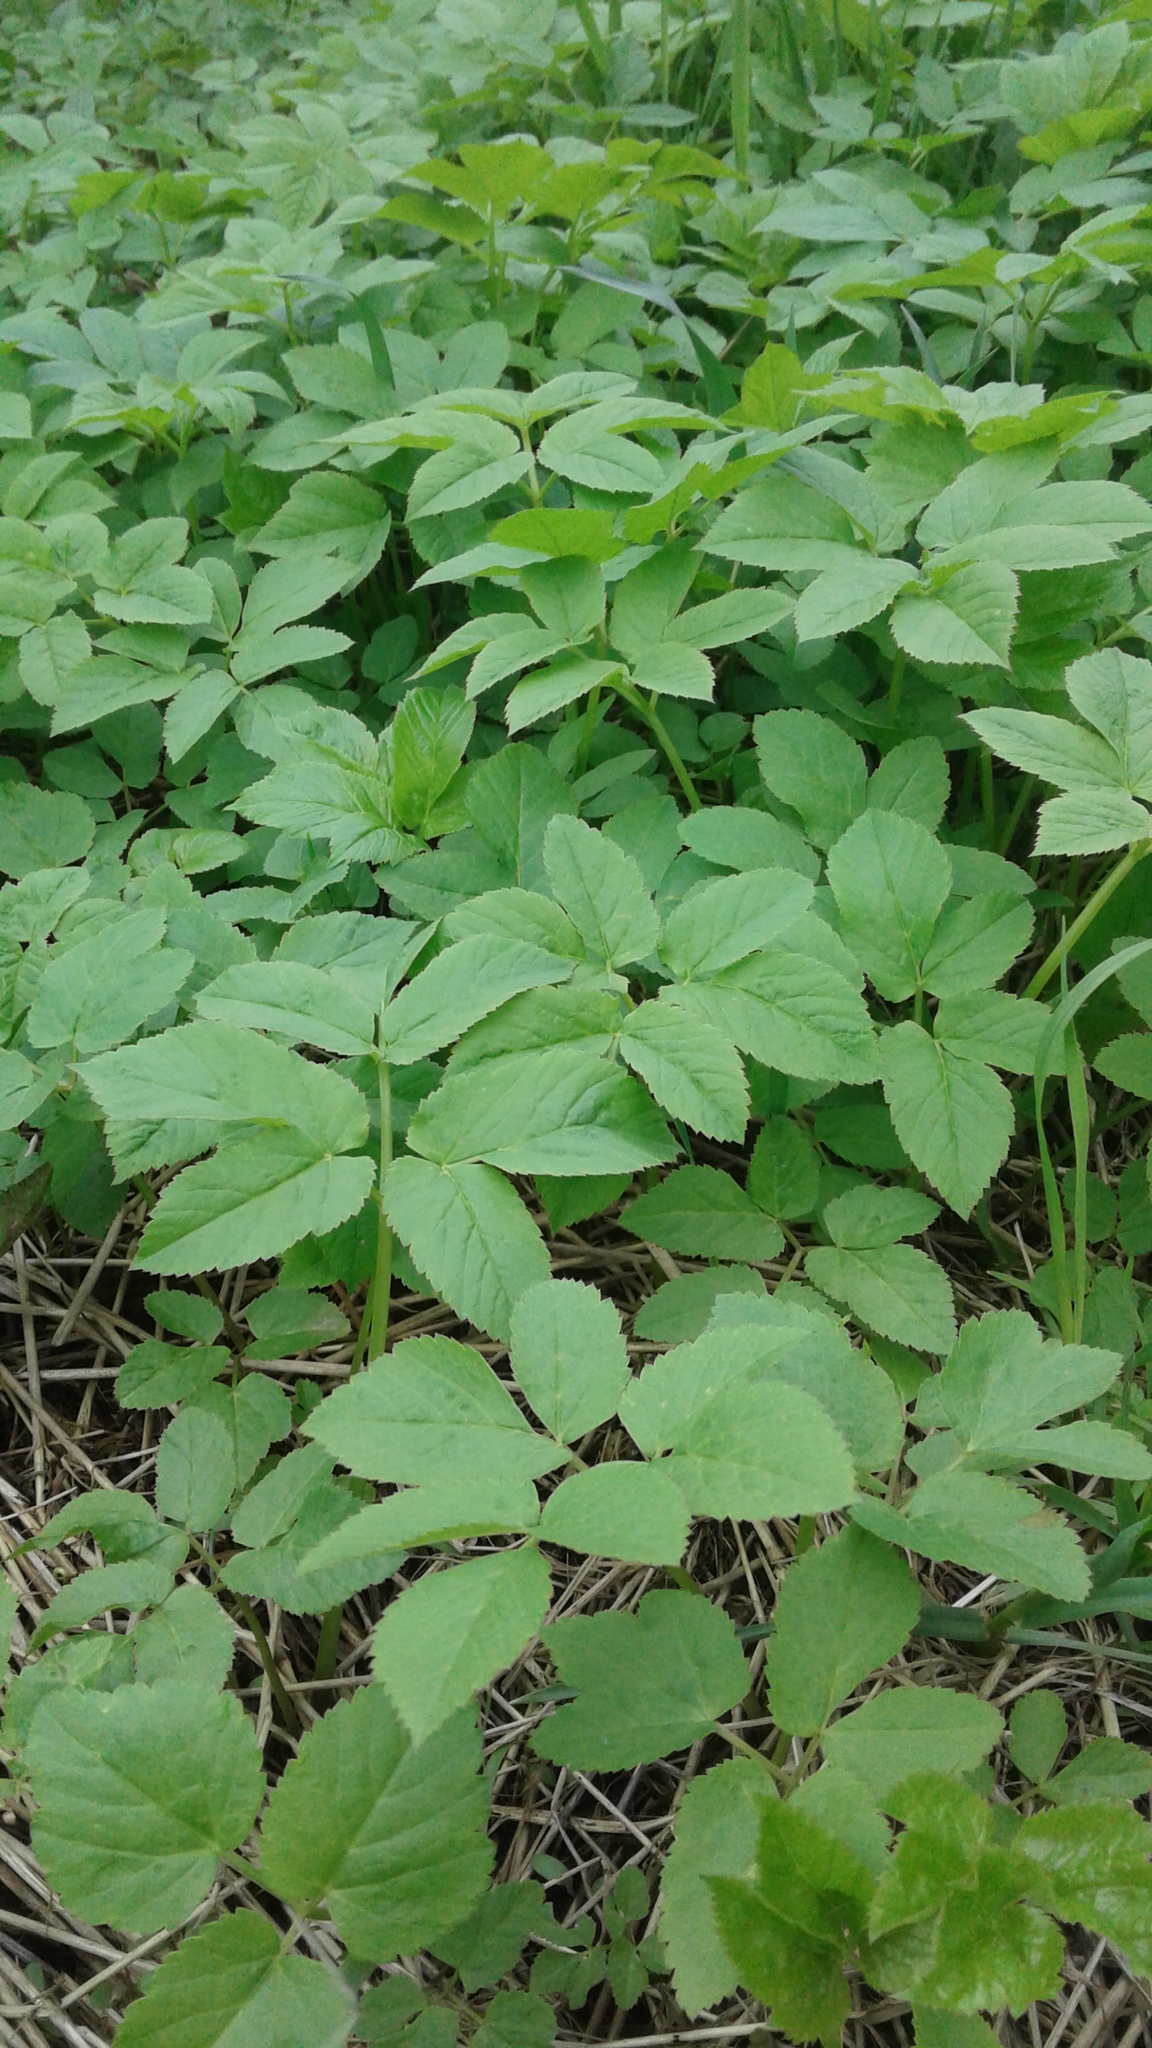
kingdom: Plantae
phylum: Tracheophyta
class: Magnoliopsida
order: Apiales
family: Apiaceae
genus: Aegopodium
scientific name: Aegopodium podagraria
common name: Ground-elder
